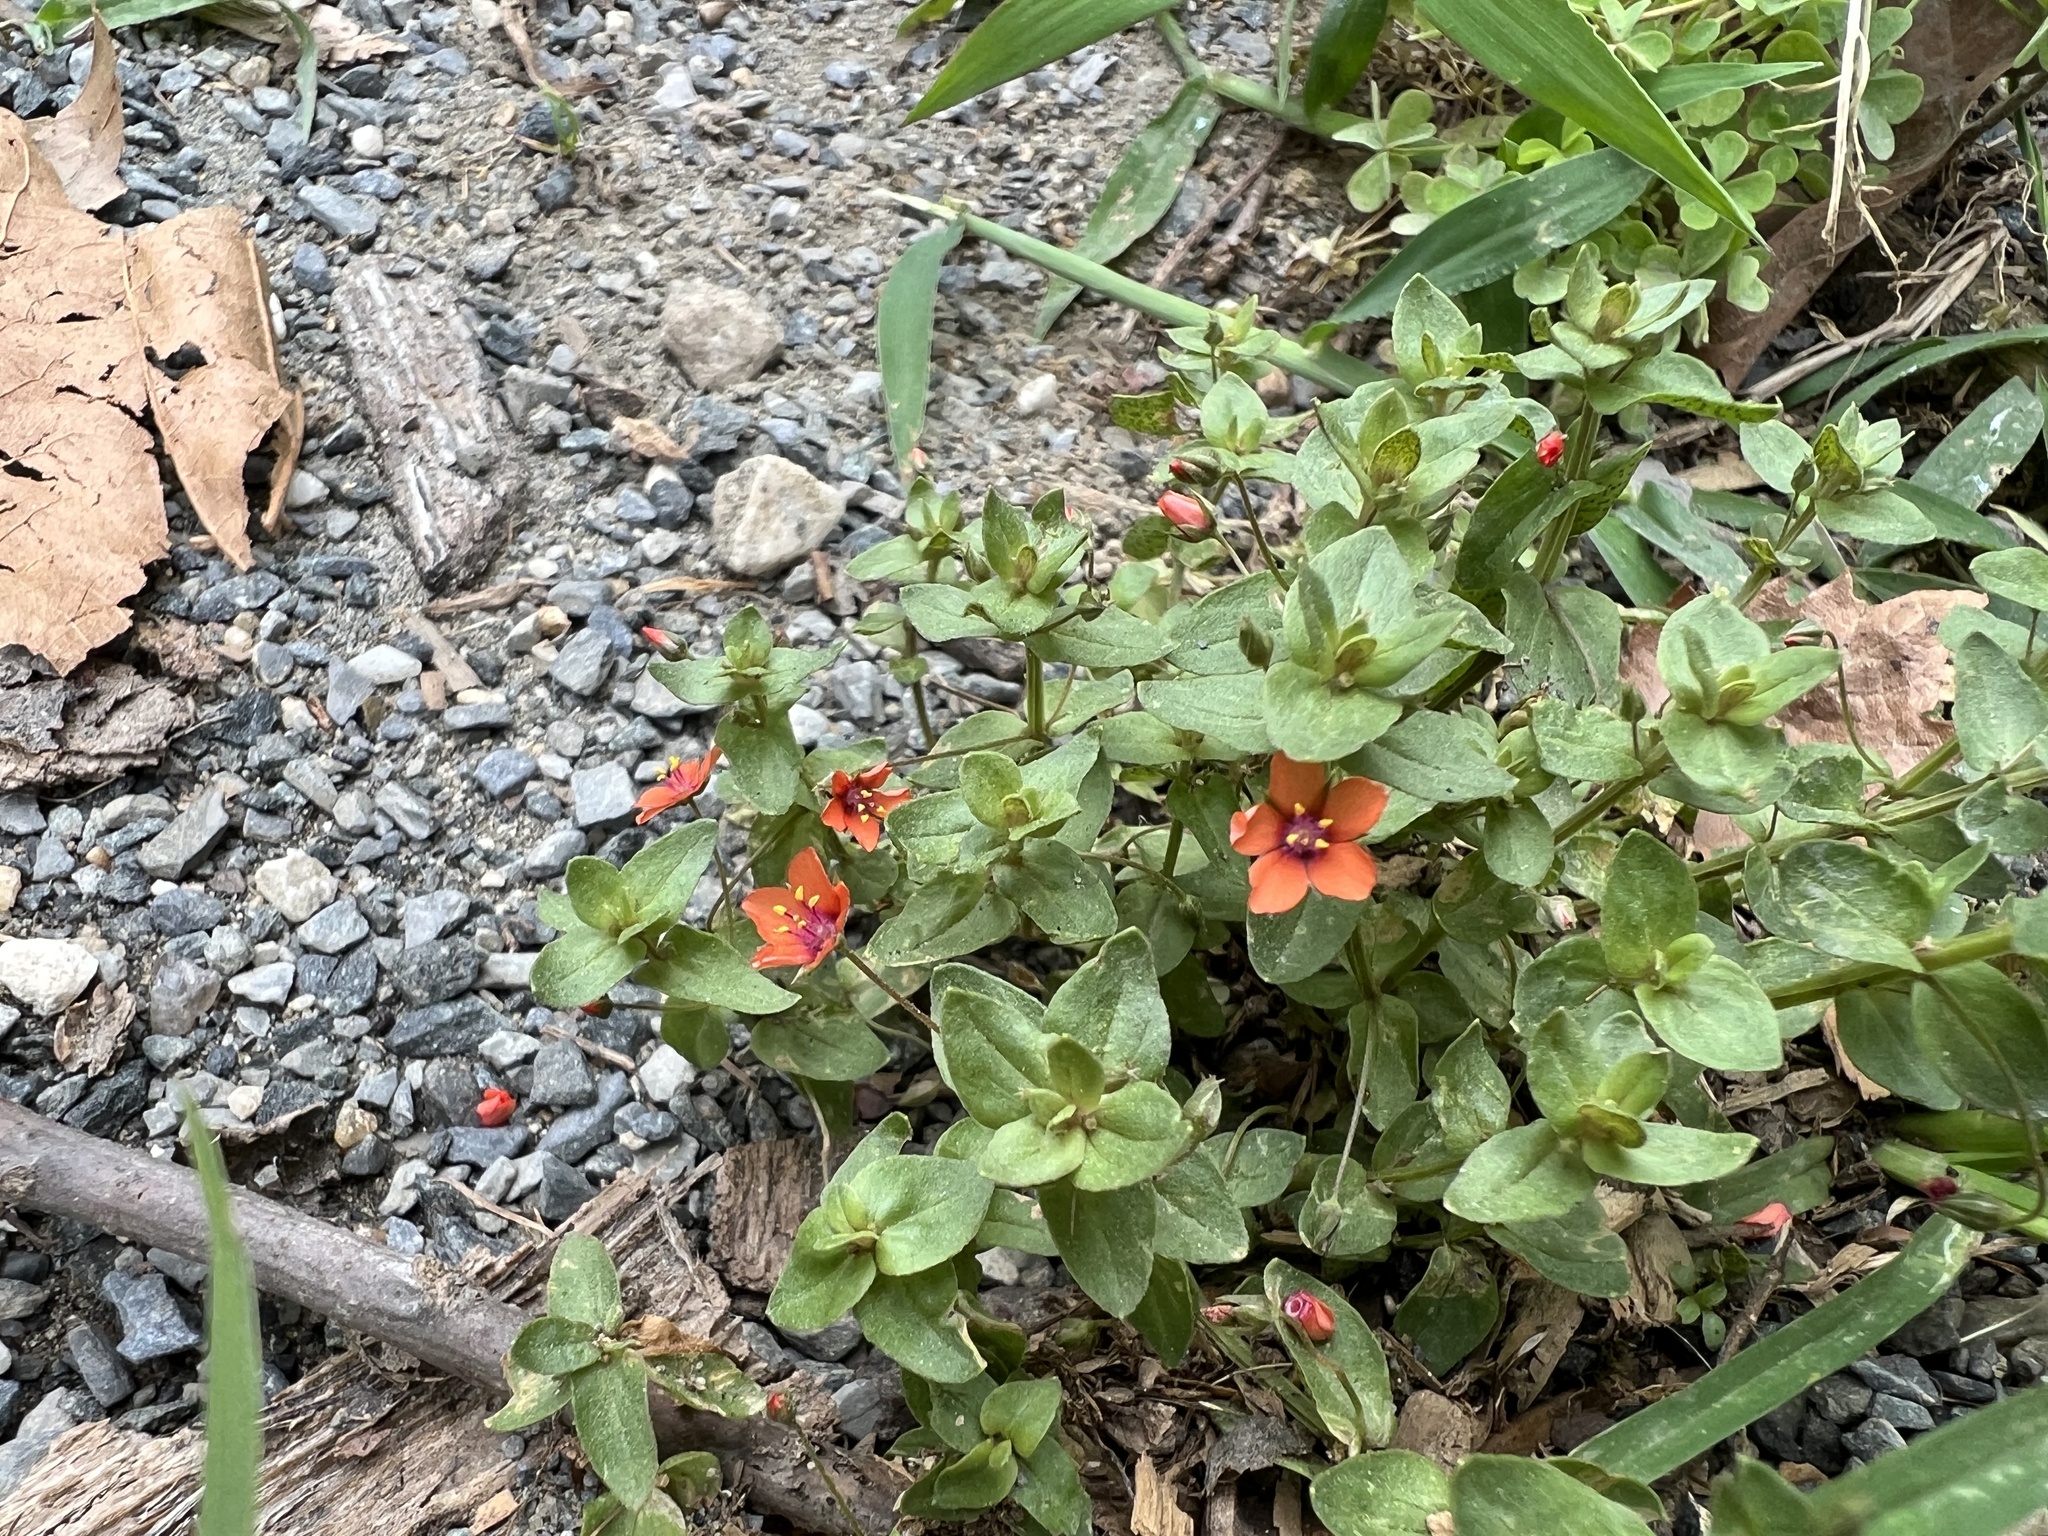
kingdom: Plantae
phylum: Tracheophyta
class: Magnoliopsida
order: Ericales
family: Primulaceae
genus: Lysimachia
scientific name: Lysimachia arvensis
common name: Scarlet pimpernel
